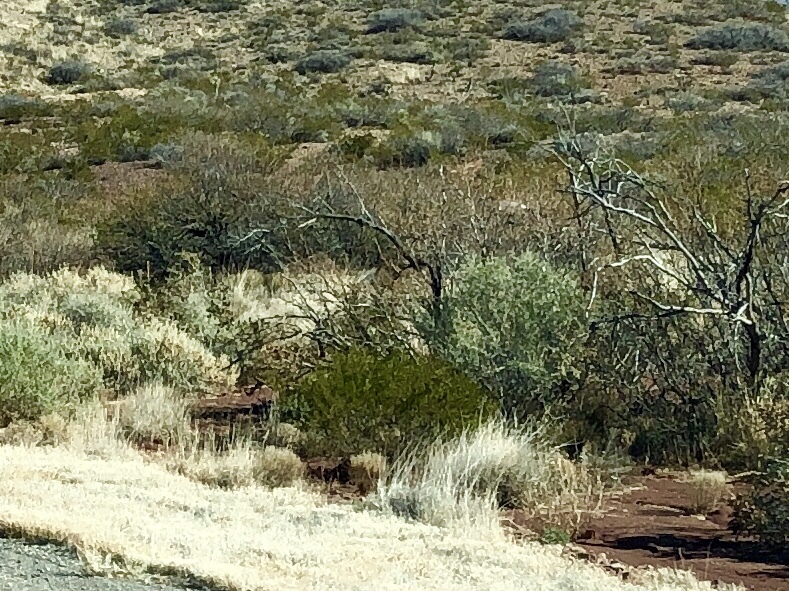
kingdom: Plantae
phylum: Tracheophyta
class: Magnoliopsida
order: Zygophyllales
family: Zygophyllaceae
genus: Larrea
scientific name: Larrea tridentata
